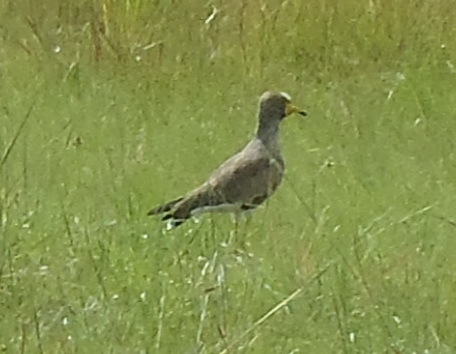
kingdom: Animalia
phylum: Chordata
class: Aves
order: Charadriiformes
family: Charadriidae
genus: Vanellus
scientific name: Vanellus senegallus
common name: African wattled lapwing
